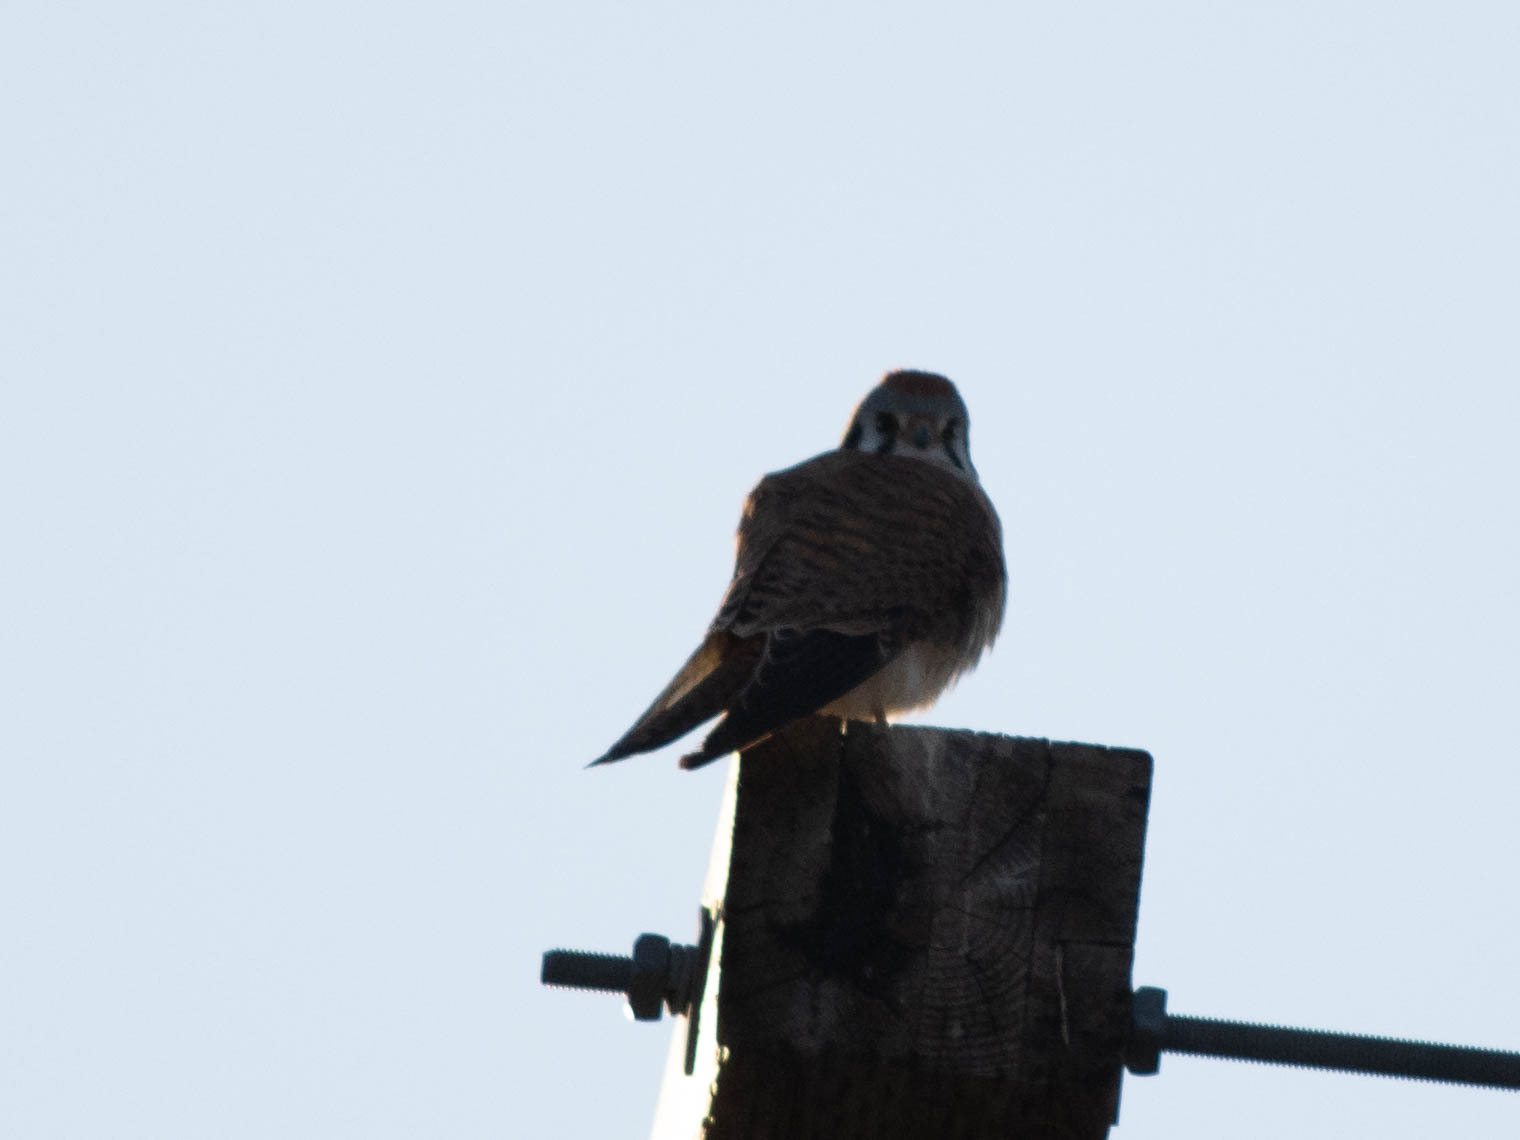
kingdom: Animalia
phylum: Chordata
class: Aves
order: Falconiformes
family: Falconidae
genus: Falco
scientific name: Falco sparverius
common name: American kestrel
